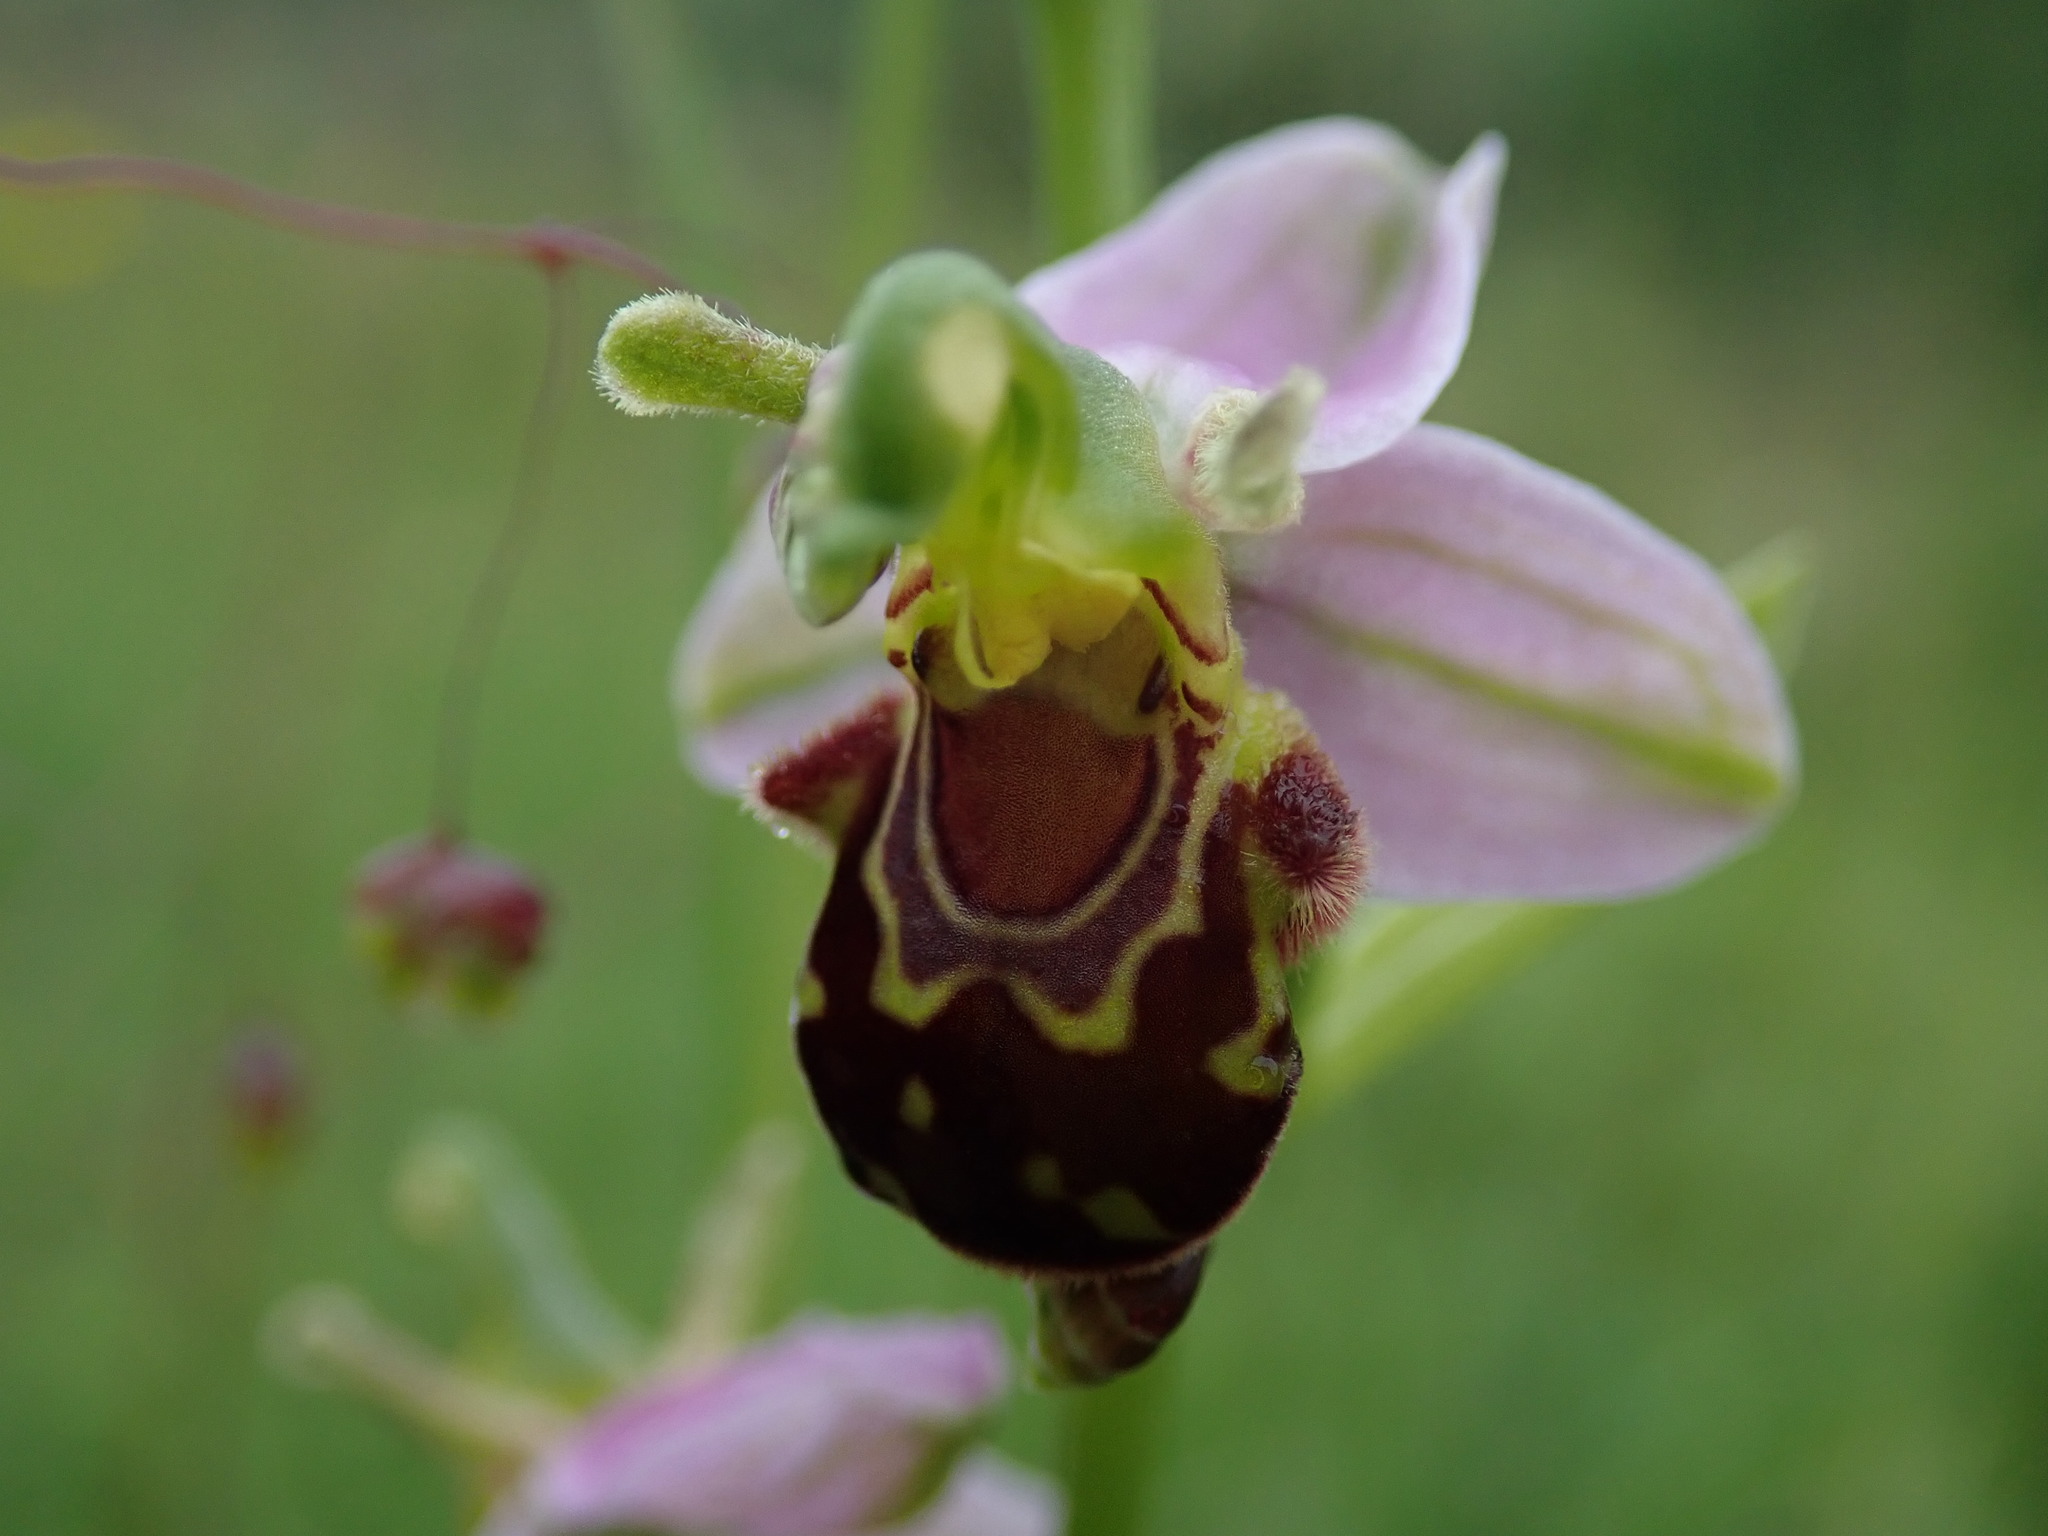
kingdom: Plantae
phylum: Tracheophyta
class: Liliopsida
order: Asparagales
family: Orchidaceae
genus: Ophrys
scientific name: Ophrys apifera
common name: Bee orchid
